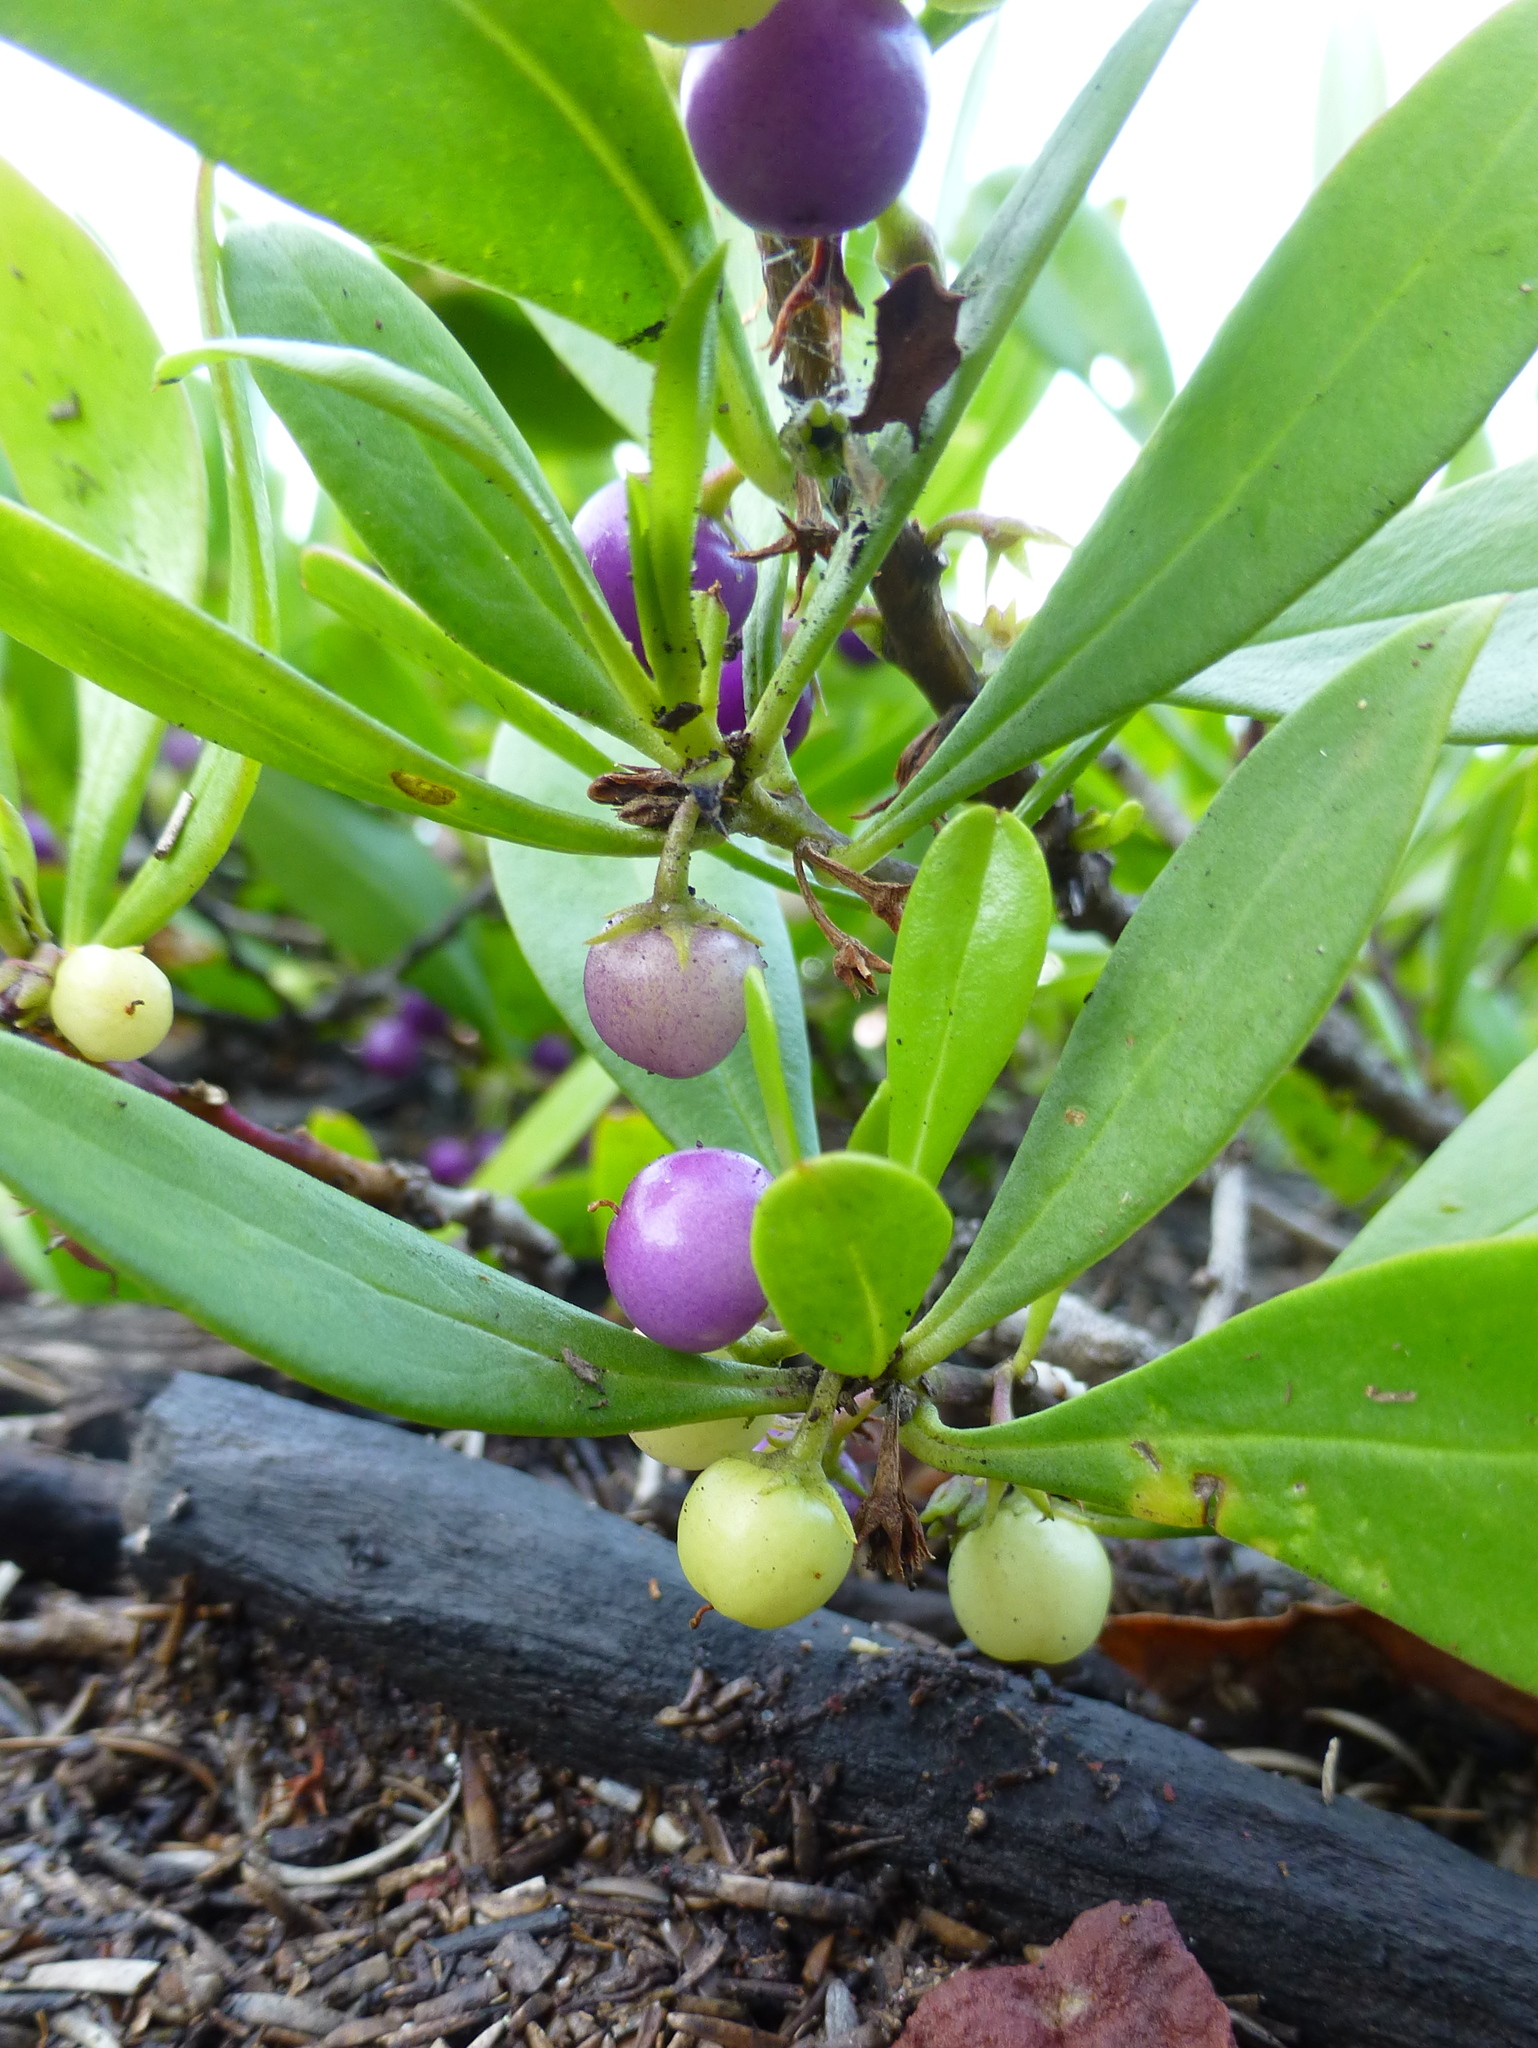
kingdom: Plantae
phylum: Tracheophyta
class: Magnoliopsida
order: Lamiales
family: Scrophulariaceae
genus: Myoporum
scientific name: Myoporum boninense
